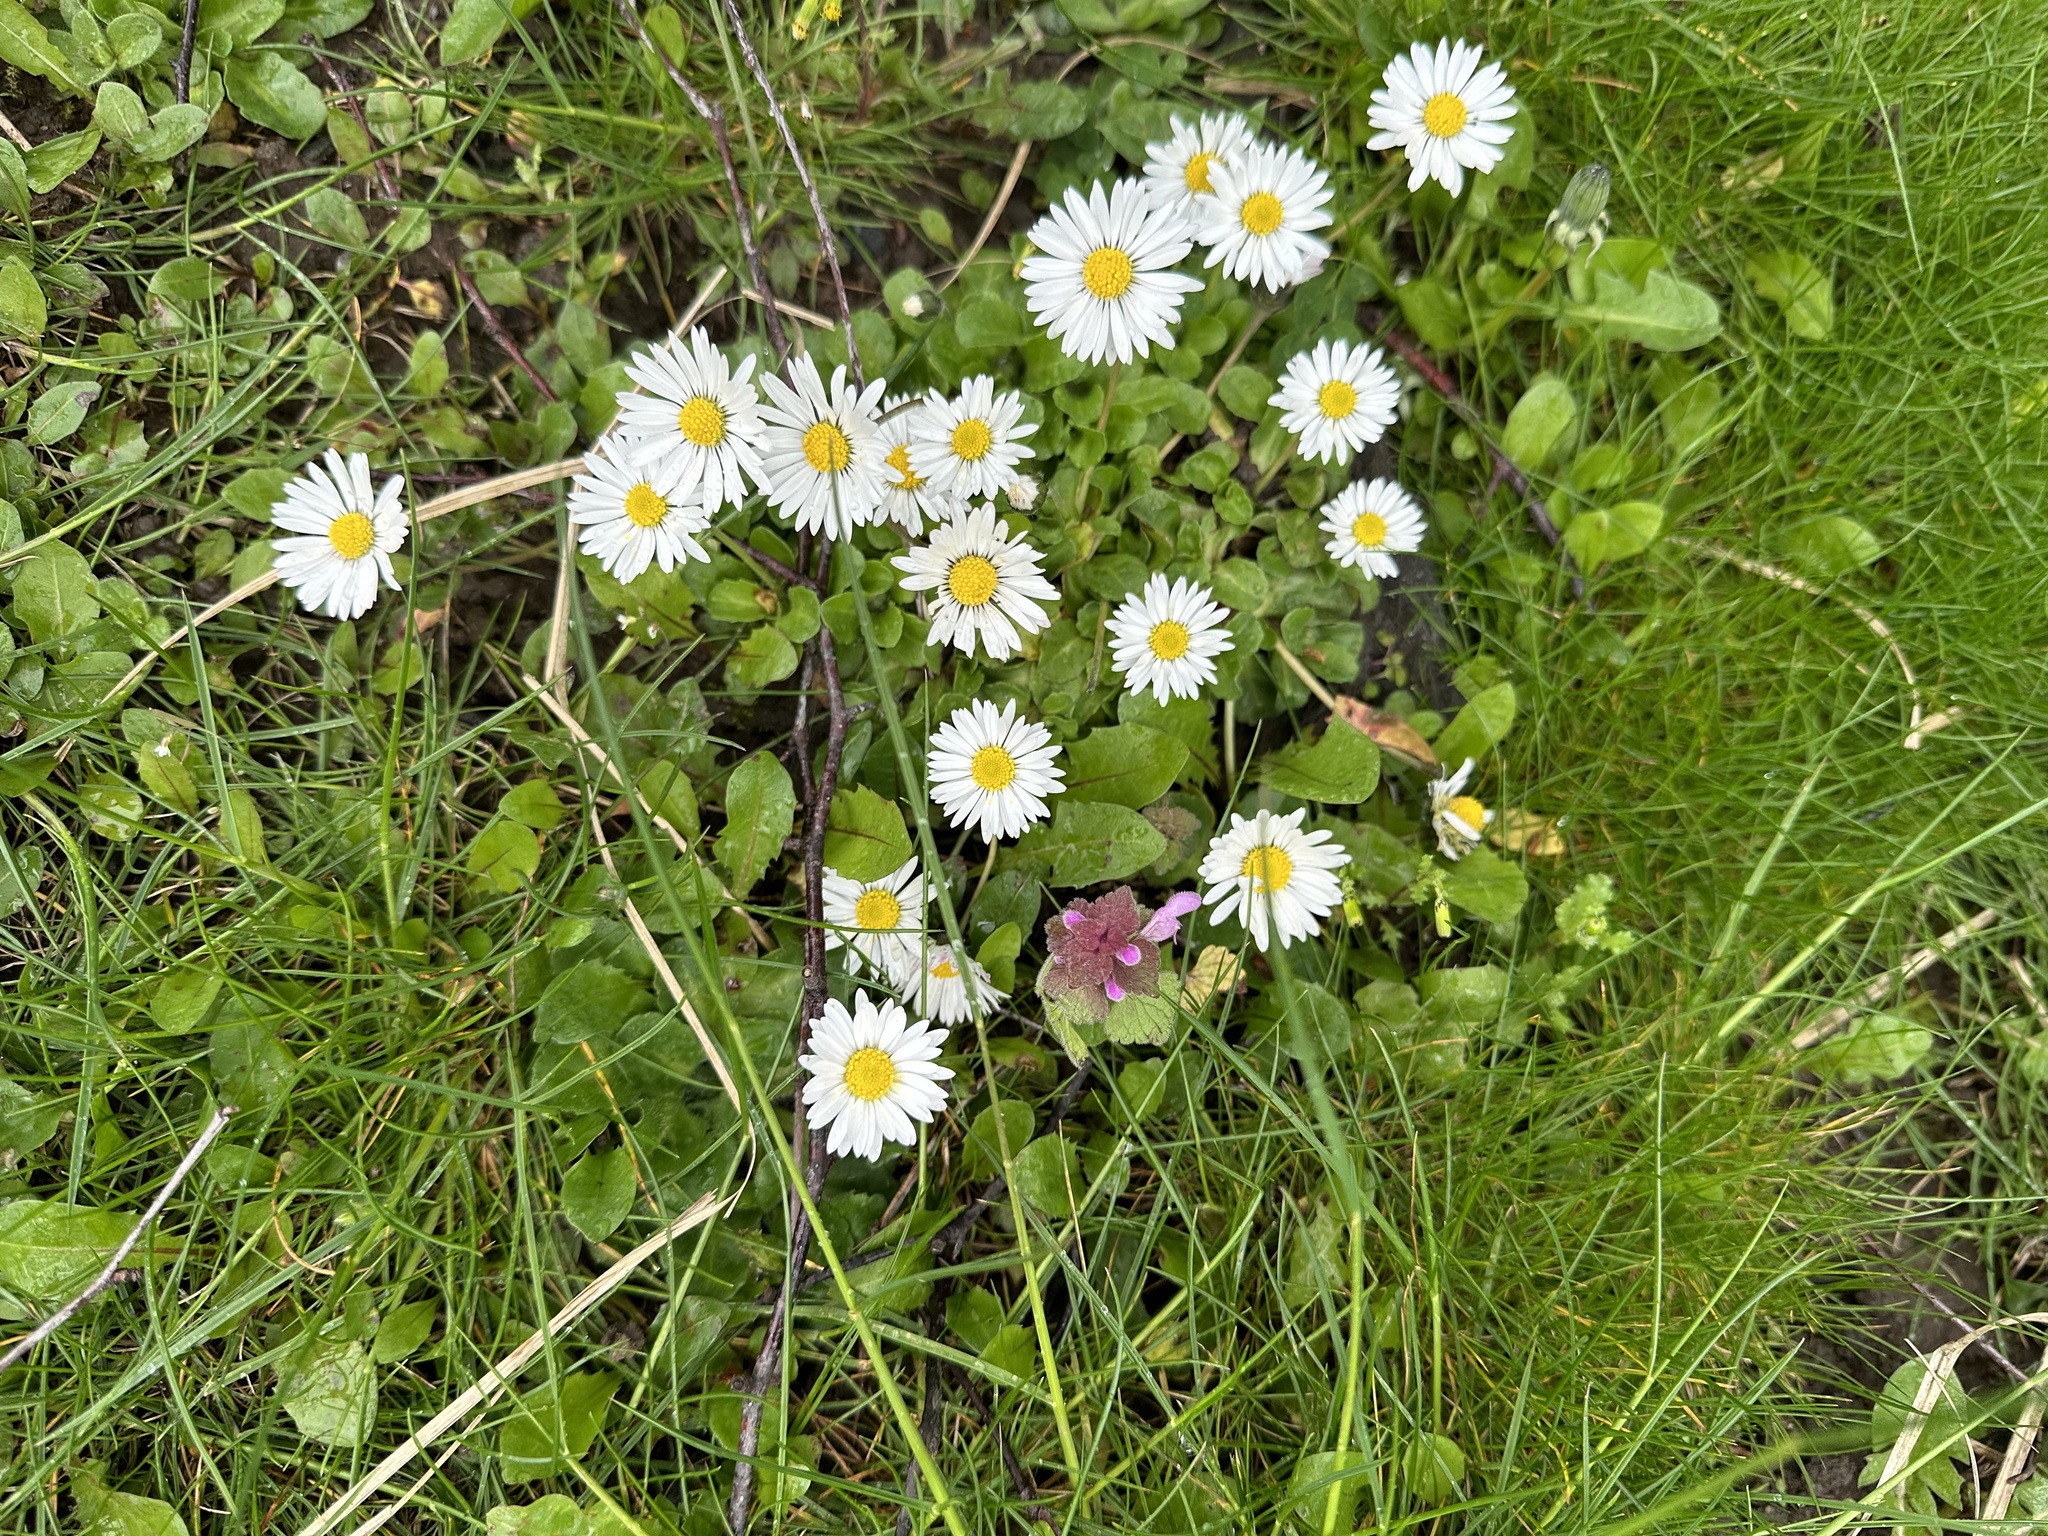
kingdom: Plantae
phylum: Tracheophyta
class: Magnoliopsida
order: Asterales
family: Asteraceae
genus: Bellis
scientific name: Bellis perennis
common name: Lawndaisy
